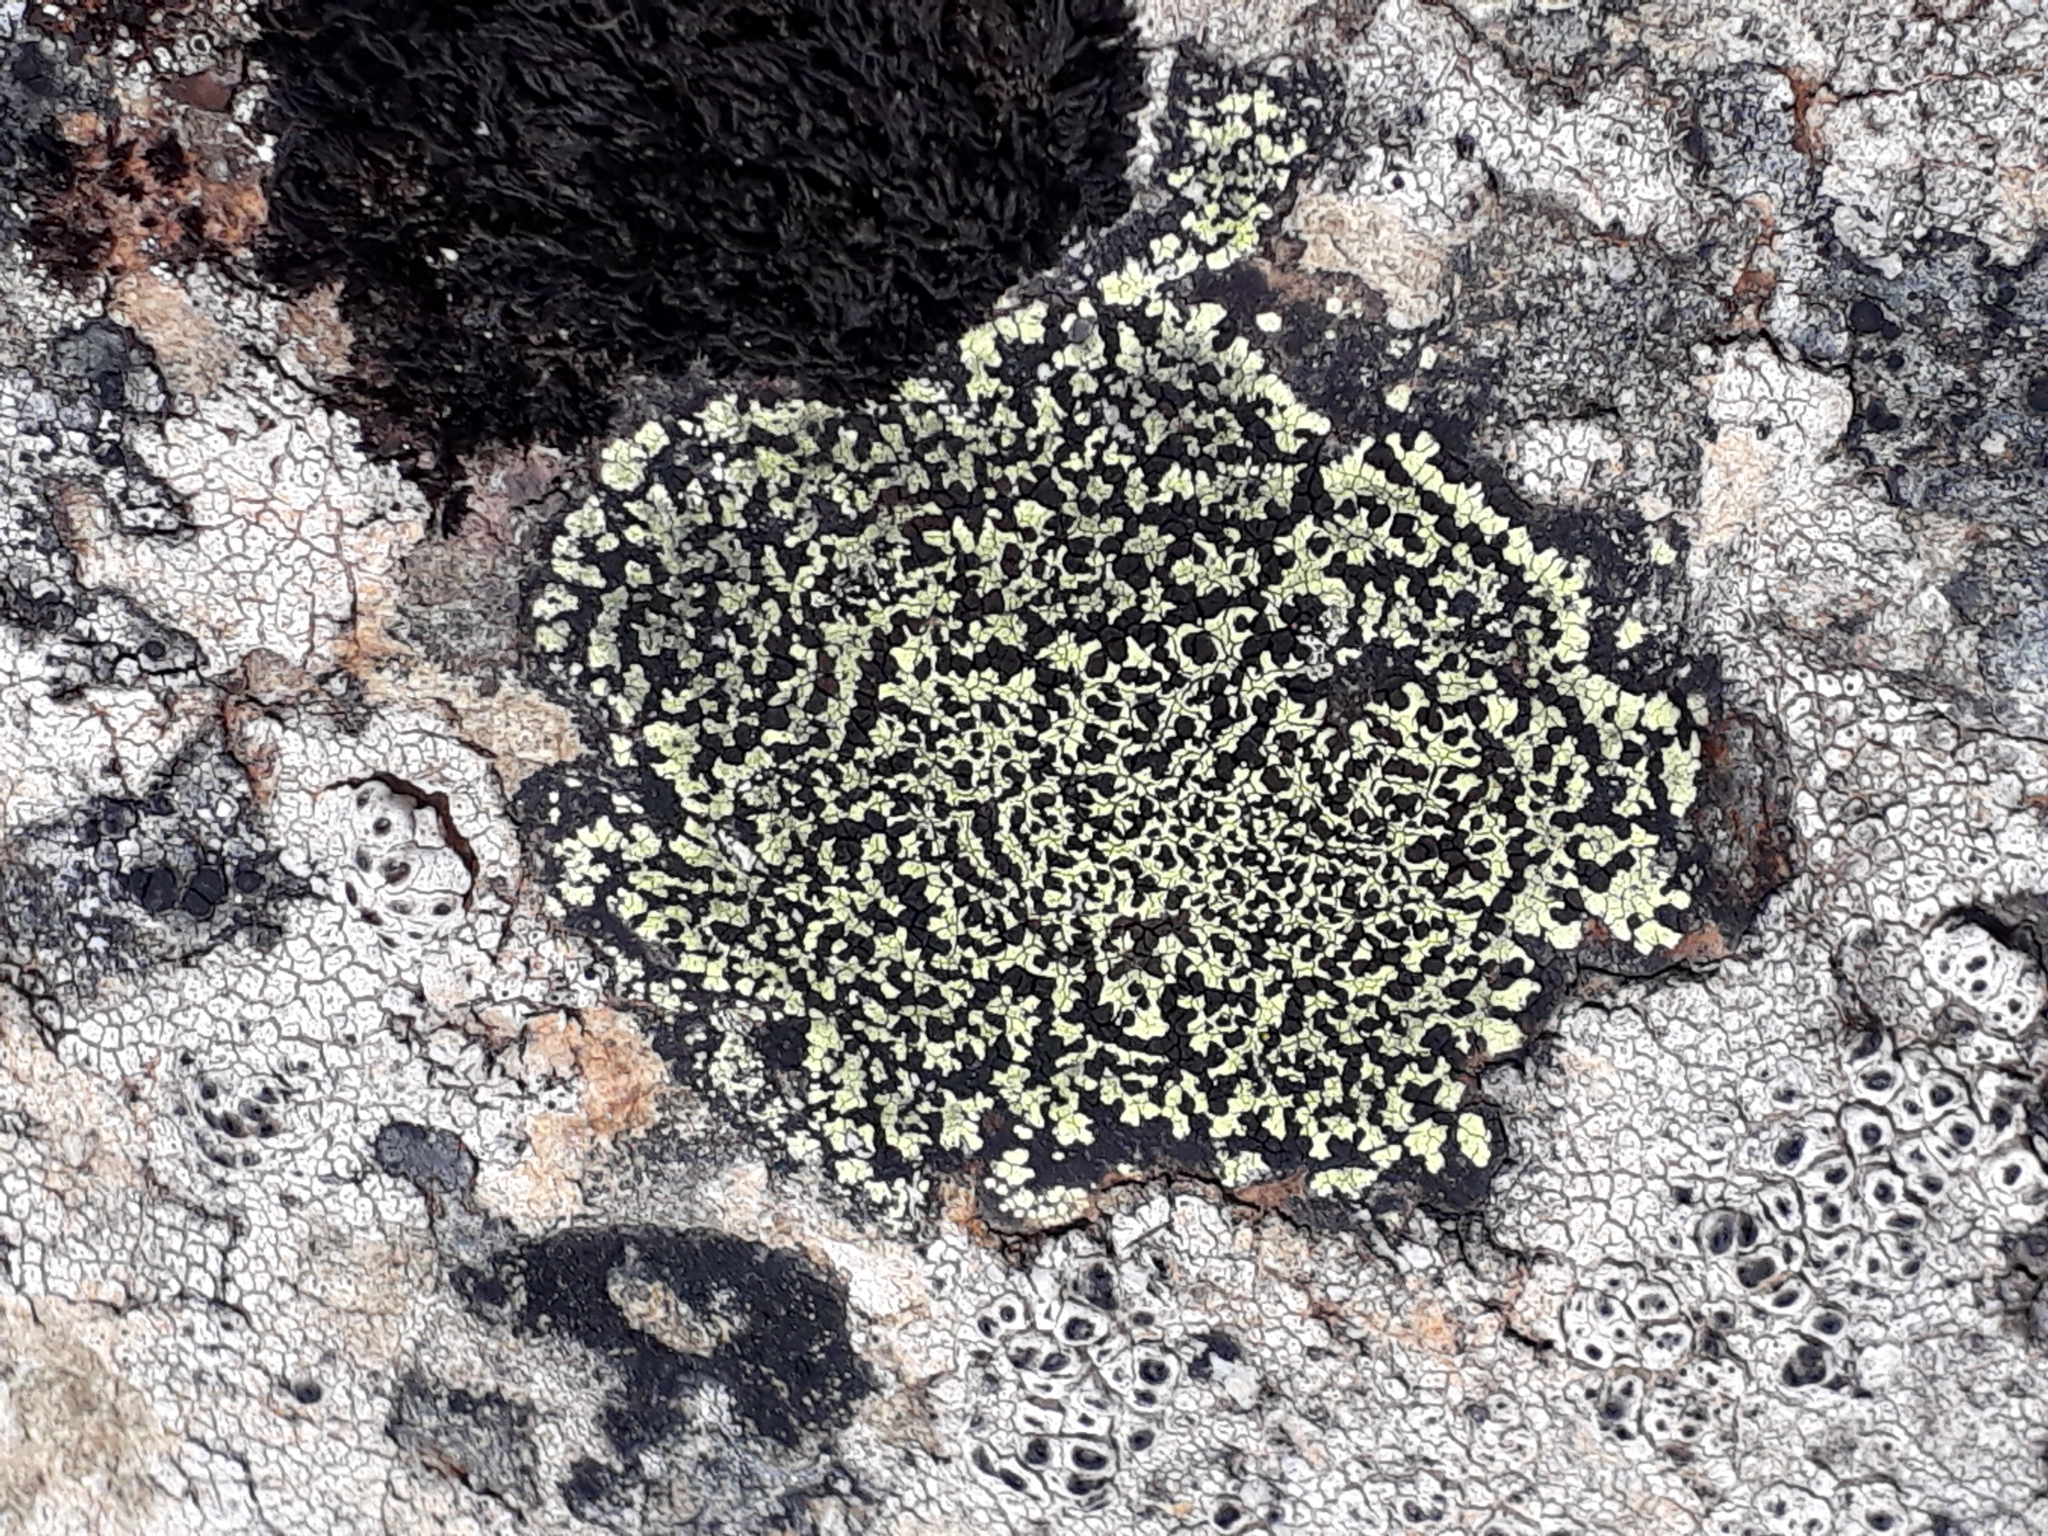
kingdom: Fungi
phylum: Ascomycota
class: Lecanoromycetes
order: Rhizocarpales
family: Rhizocarpaceae
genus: Rhizocarpon
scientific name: Rhizocarpon geographicum
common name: Yellow map lichen
